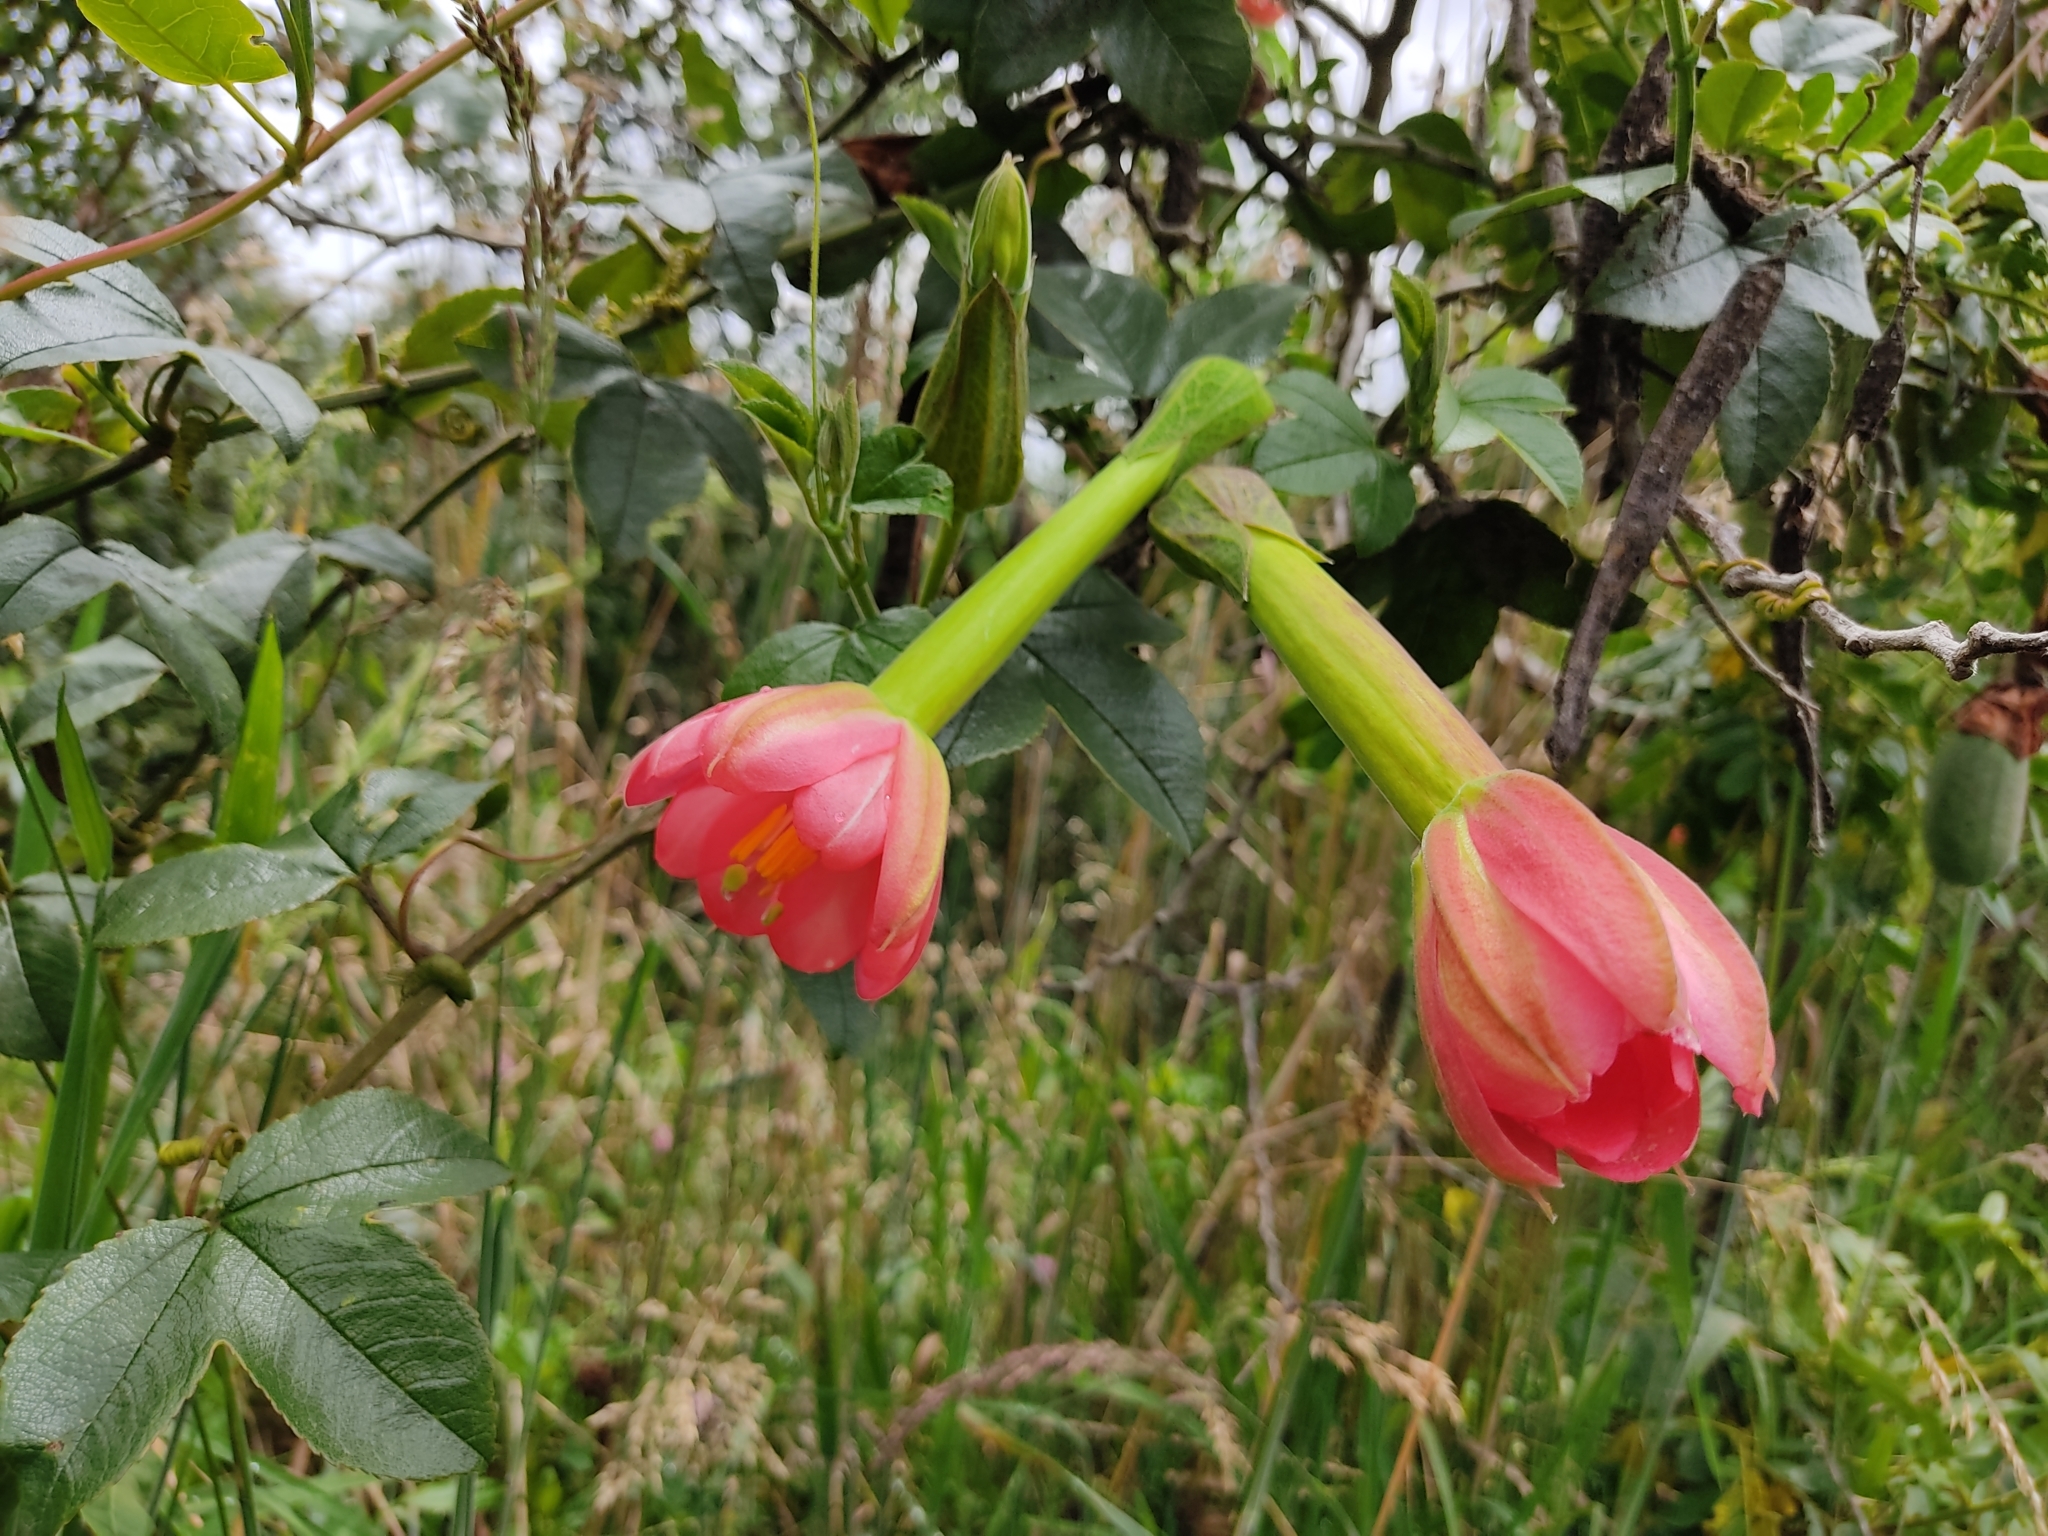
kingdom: Plantae
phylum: Tracheophyta
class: Magnoliopsida
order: Malpighiales
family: Passifloraceae
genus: Passiflora
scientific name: Passiflora mixta
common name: Passion flower
